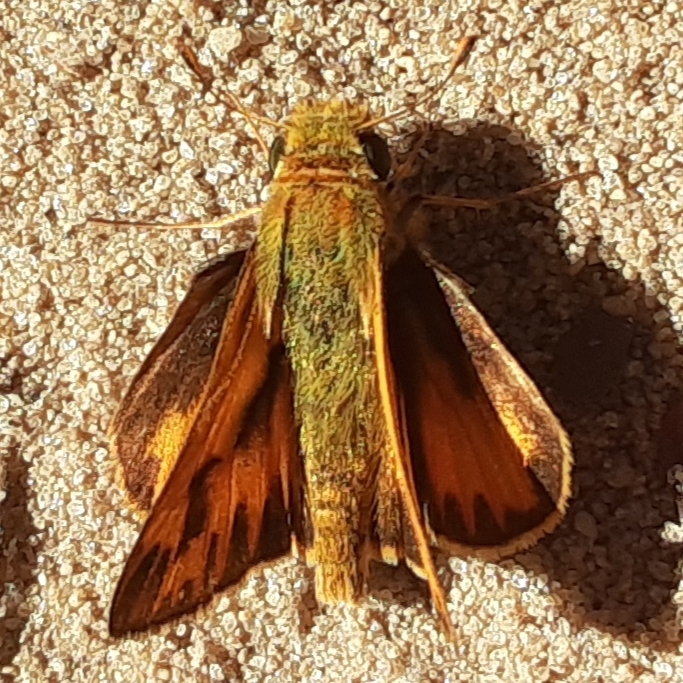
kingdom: Animalia
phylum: Arthropoda
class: Insecta
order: Lepidoptera
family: Hesperiidae
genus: Hylephila
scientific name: Hylephila phyleus
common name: Fiery skipper
